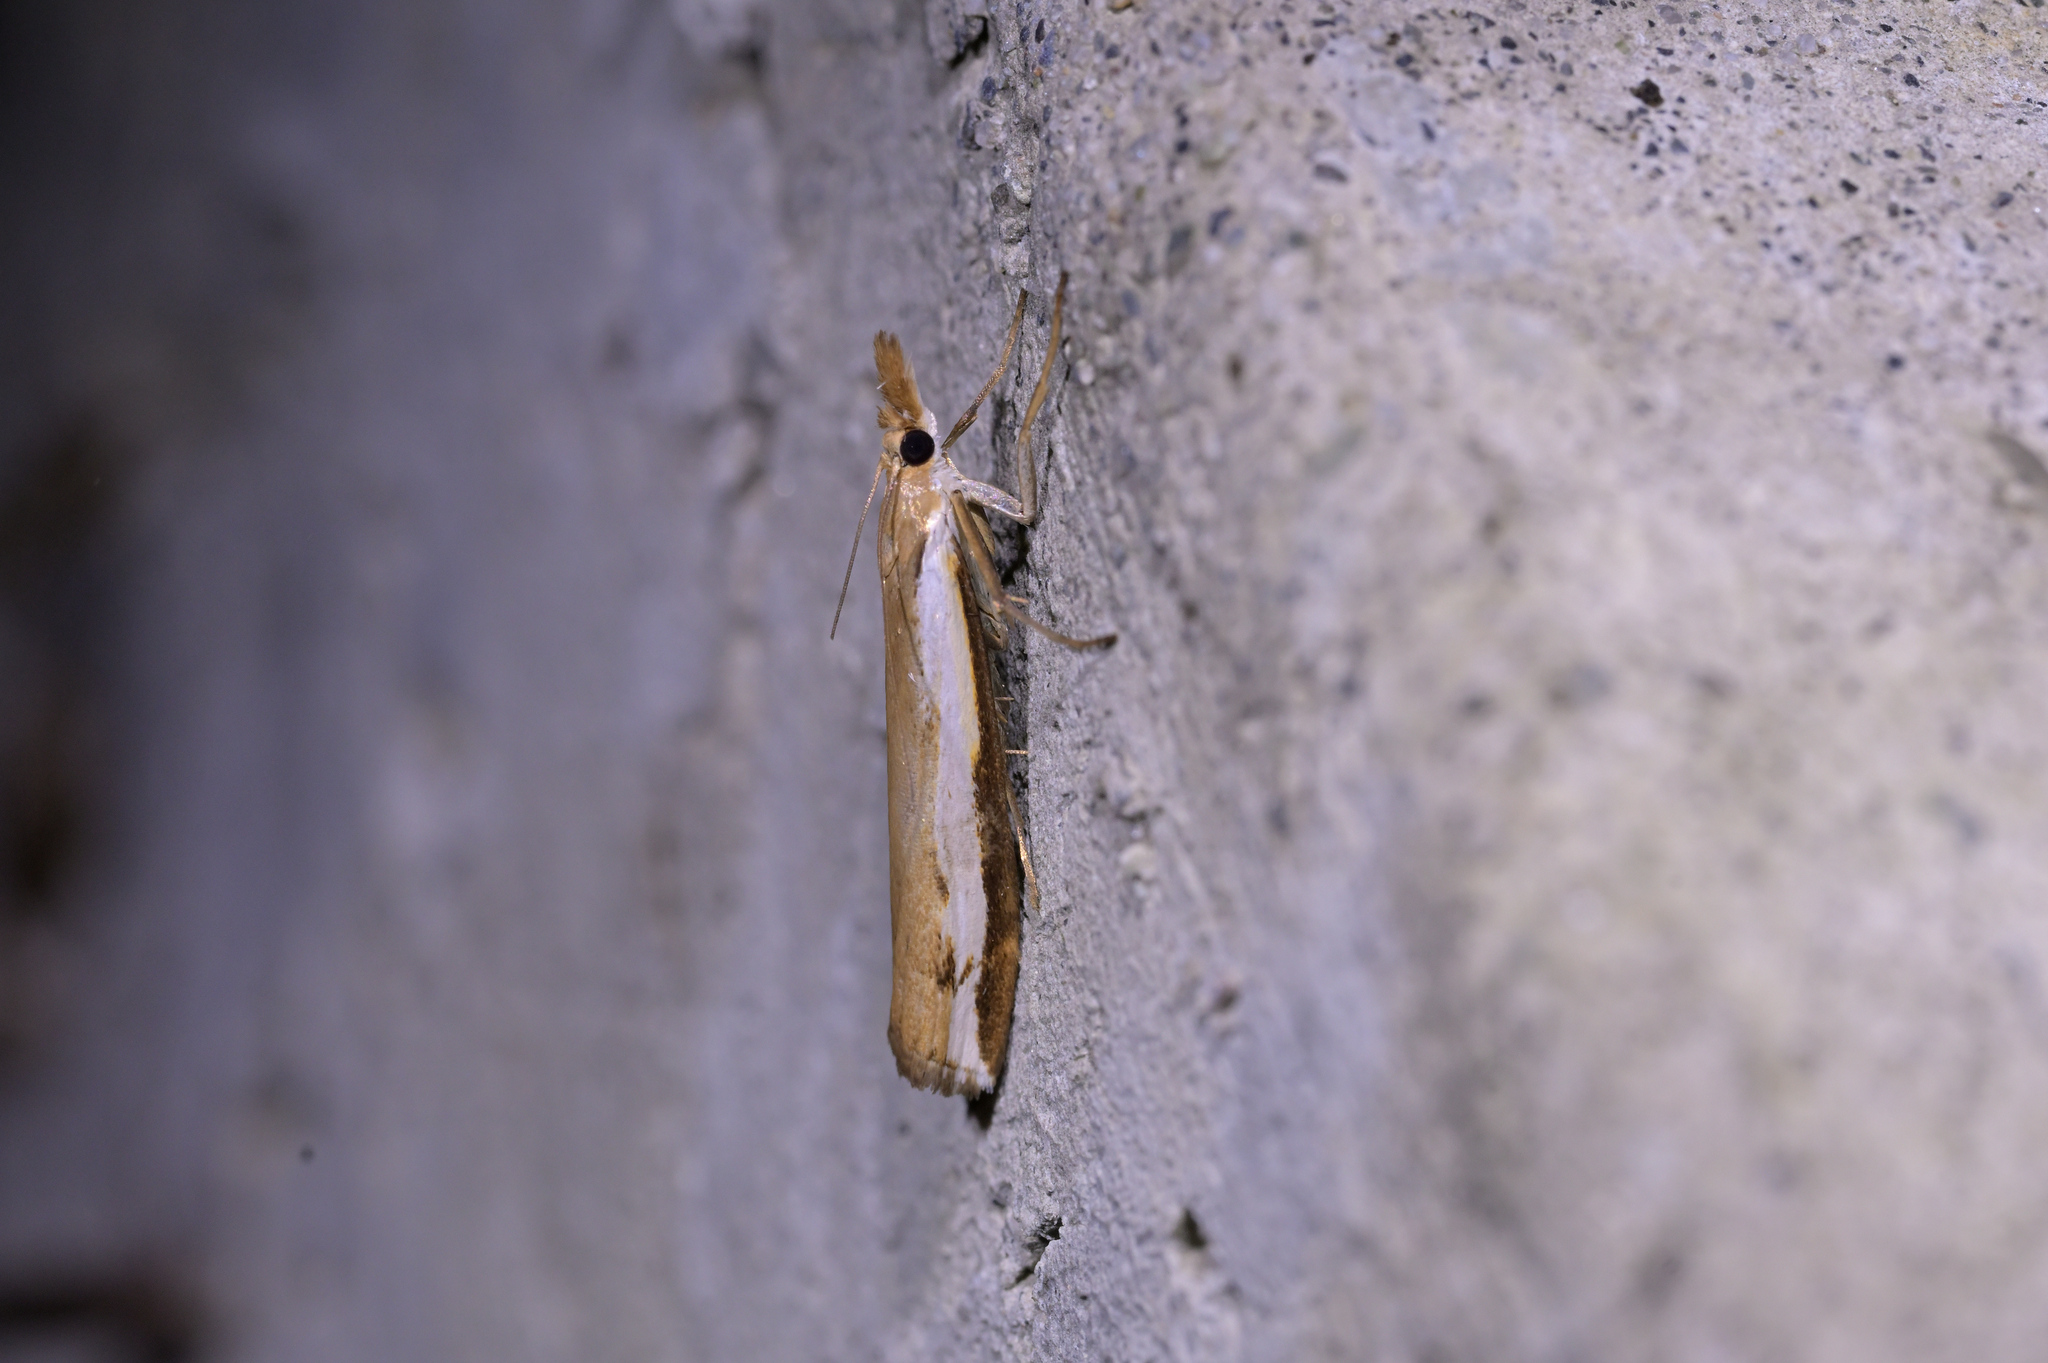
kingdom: Animalia
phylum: Arthropoda
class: Insecta
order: Lepidoptera
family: Crambidae
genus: Orocrambus
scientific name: Orocrambus flexuosellus
